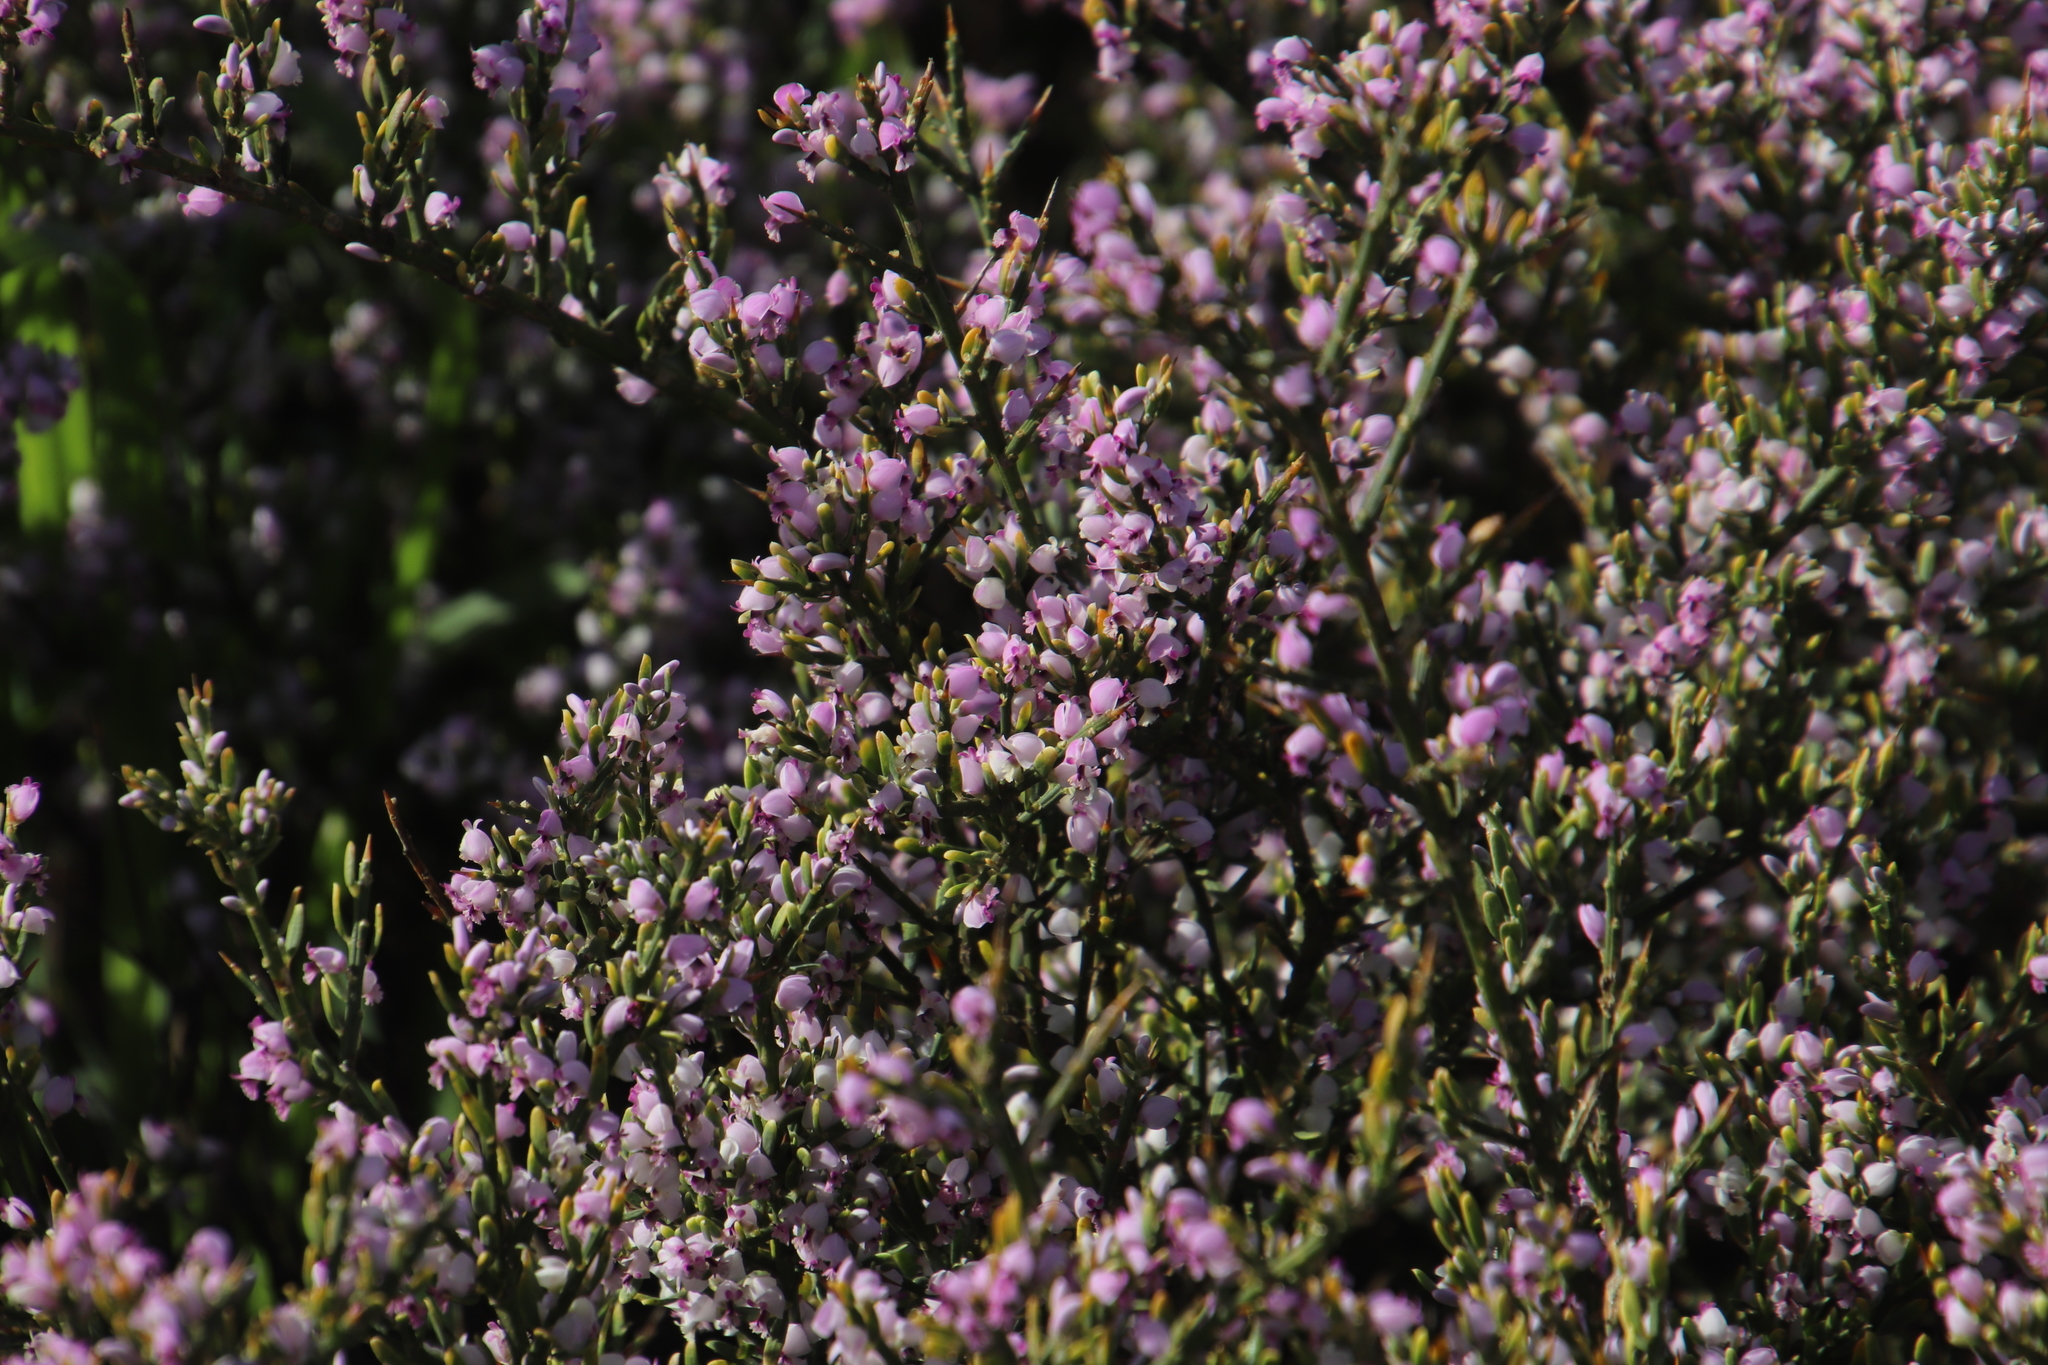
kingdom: Plantae
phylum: Tracheophyta
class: Magnoliopsida
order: Fabales
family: Polygalaceae
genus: Muraltia
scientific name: Muraltia spinosa
